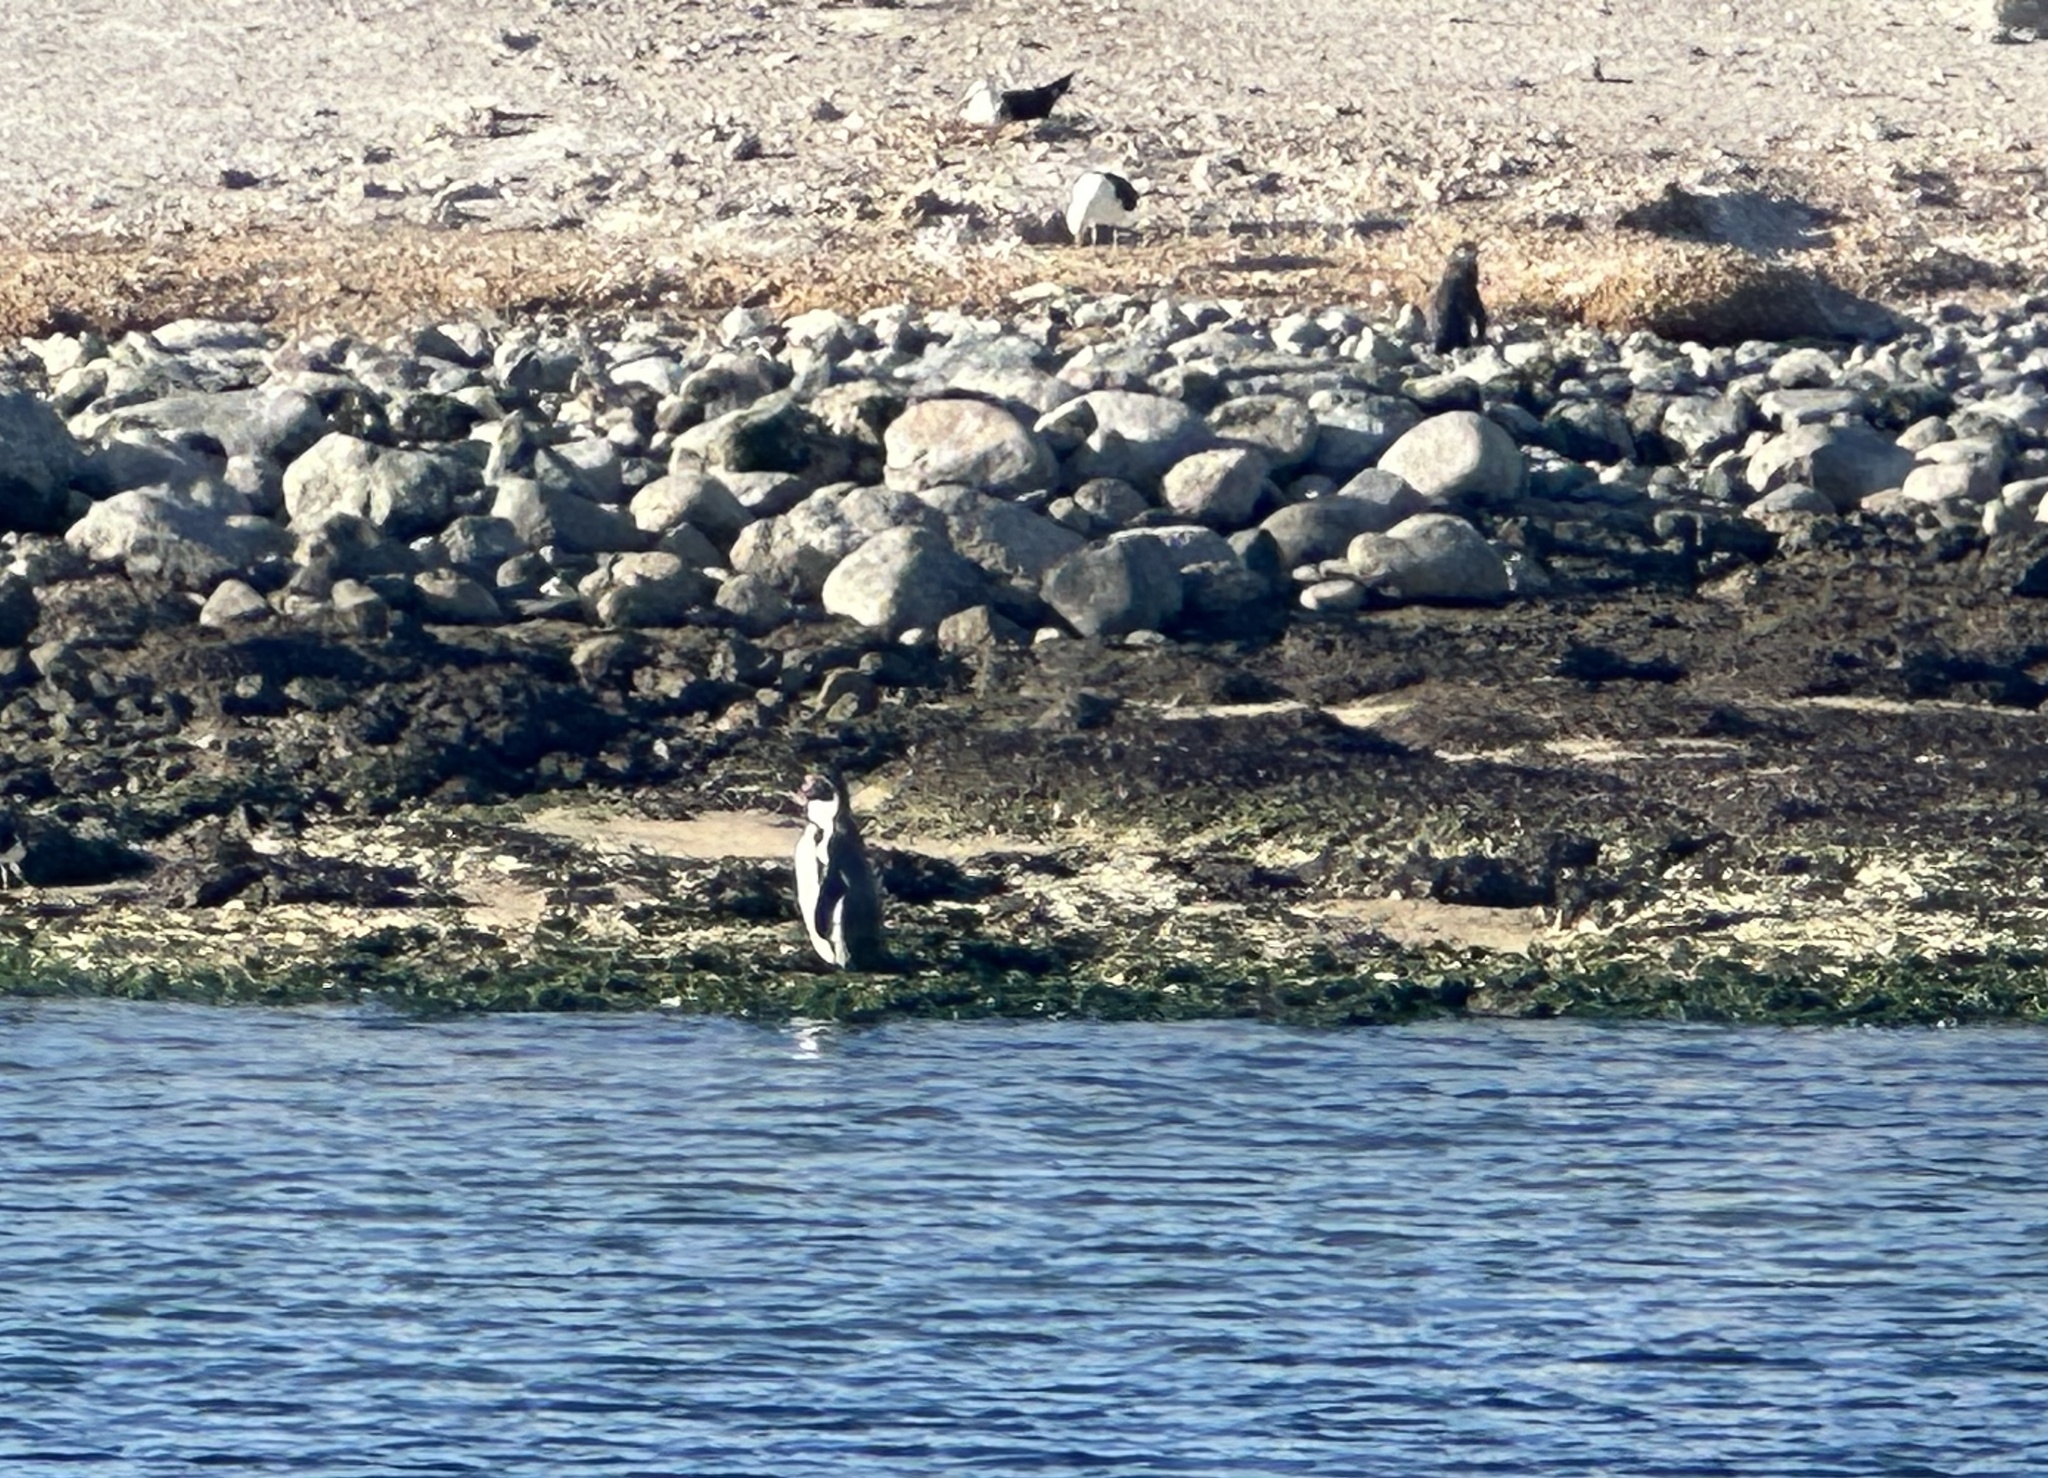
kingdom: Animalia
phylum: Chordata
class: Aves
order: Sphenisciformes
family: Spheniscidae
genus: Spheniscus
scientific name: Spheniscus humboldti
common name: Humboldt penguin
